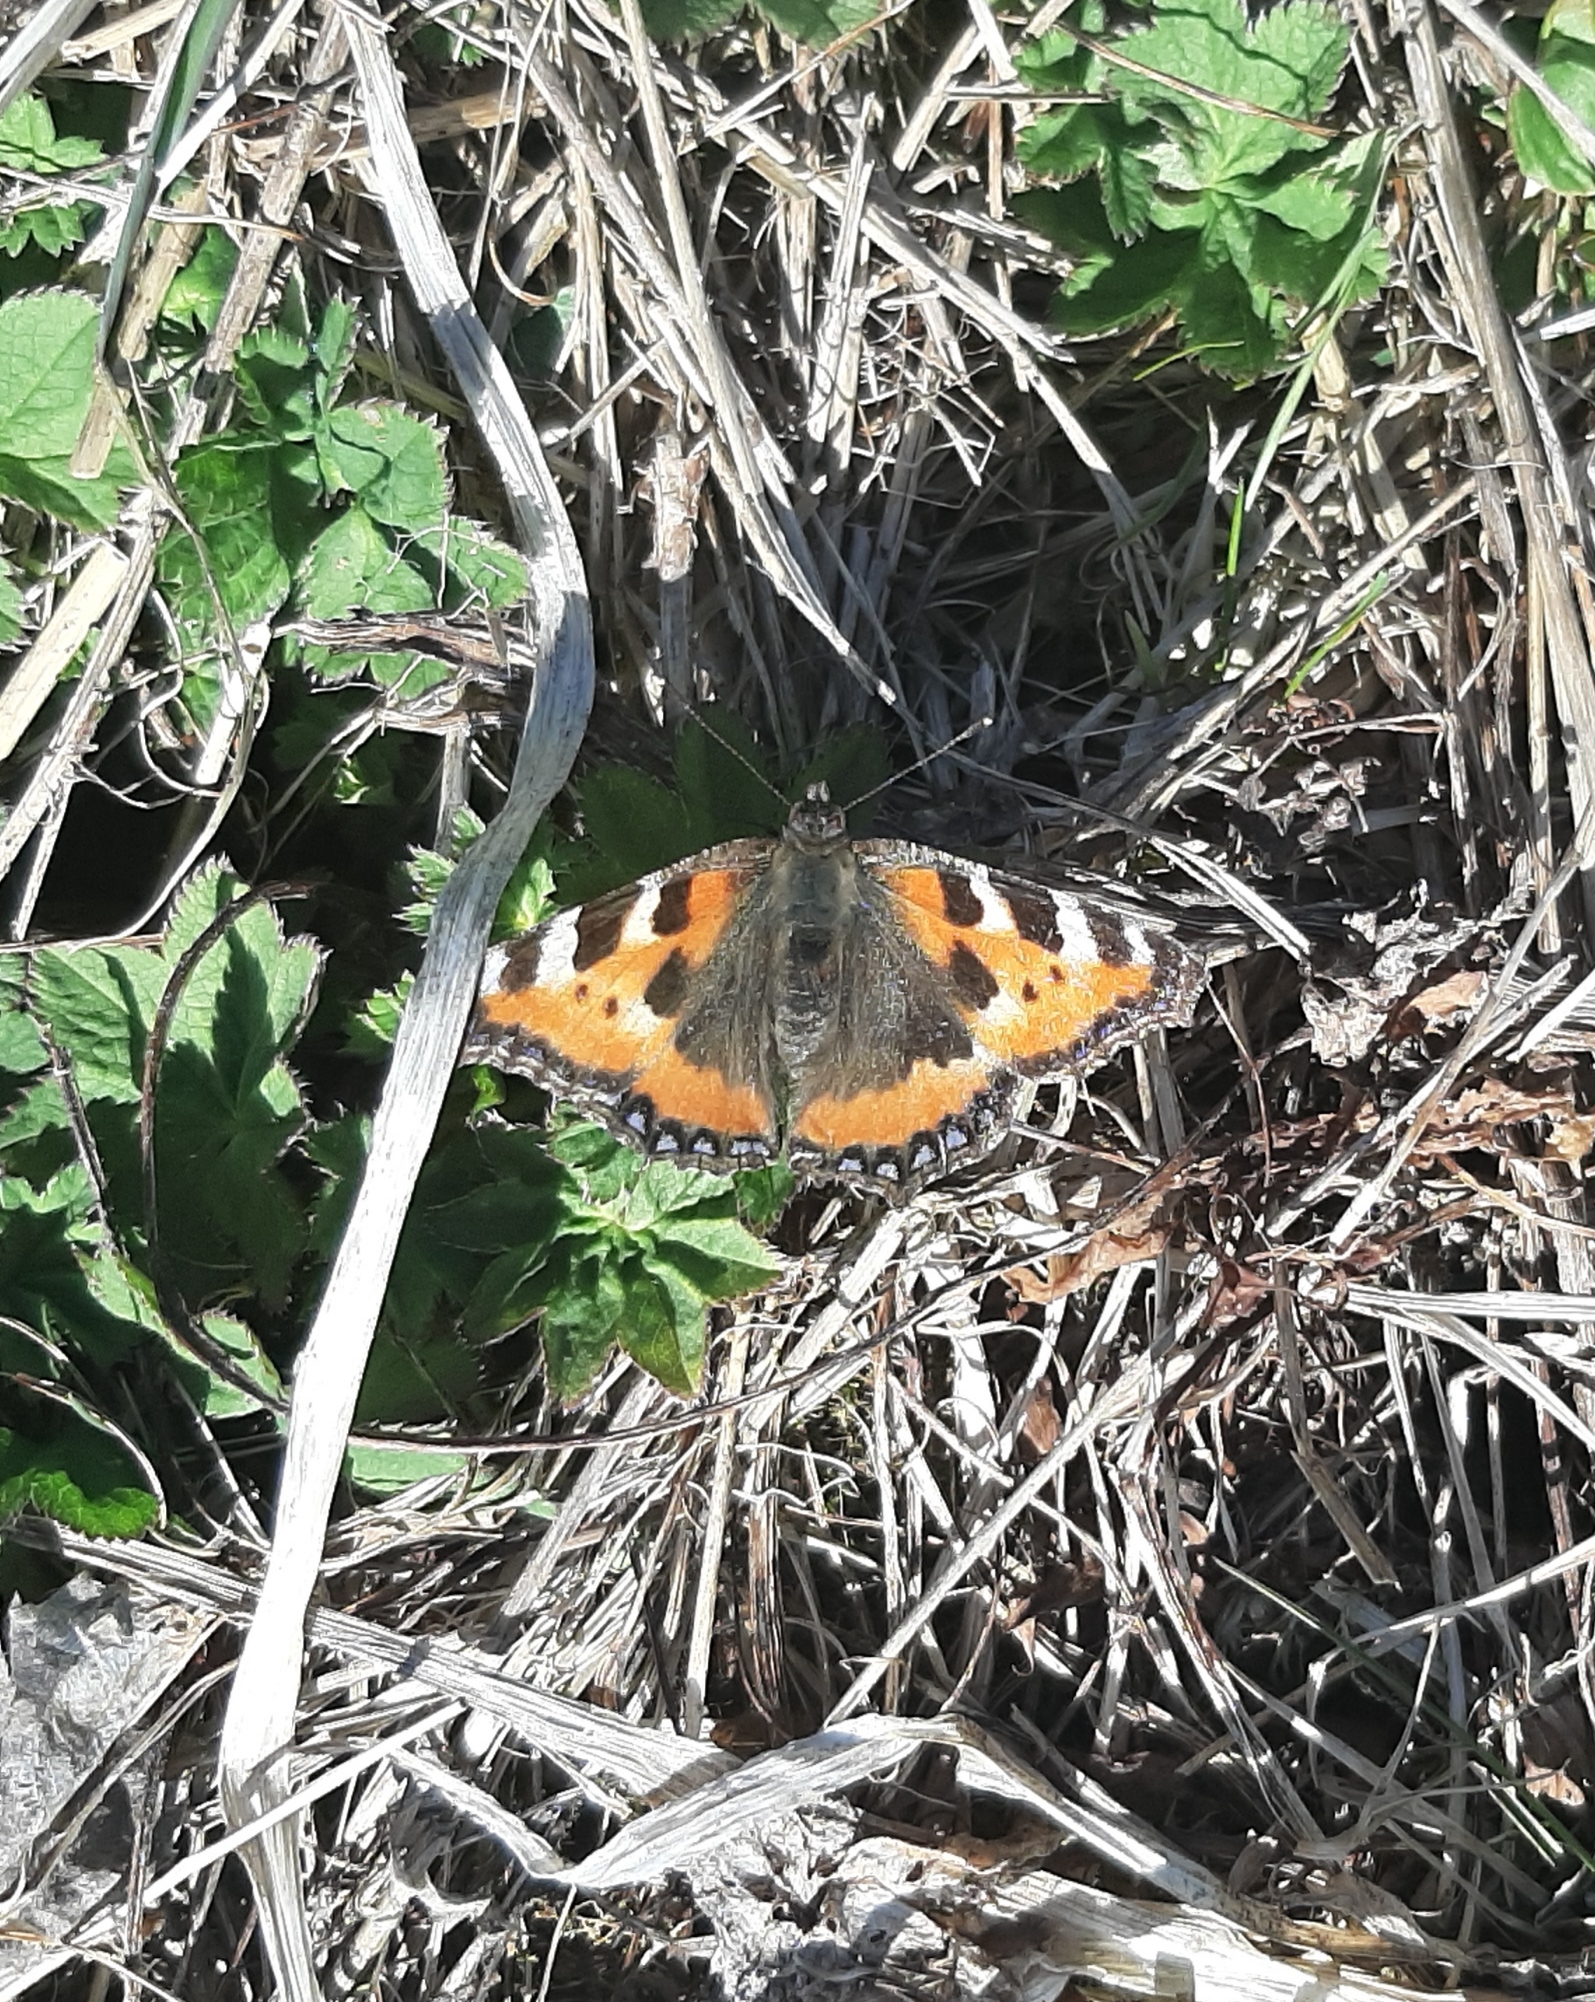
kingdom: Animalia
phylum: Arthropoda
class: Insecta
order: Lepidoptera
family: Nymphalidae
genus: Aglais
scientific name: Aglais urticae
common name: Small tortoiseshell
